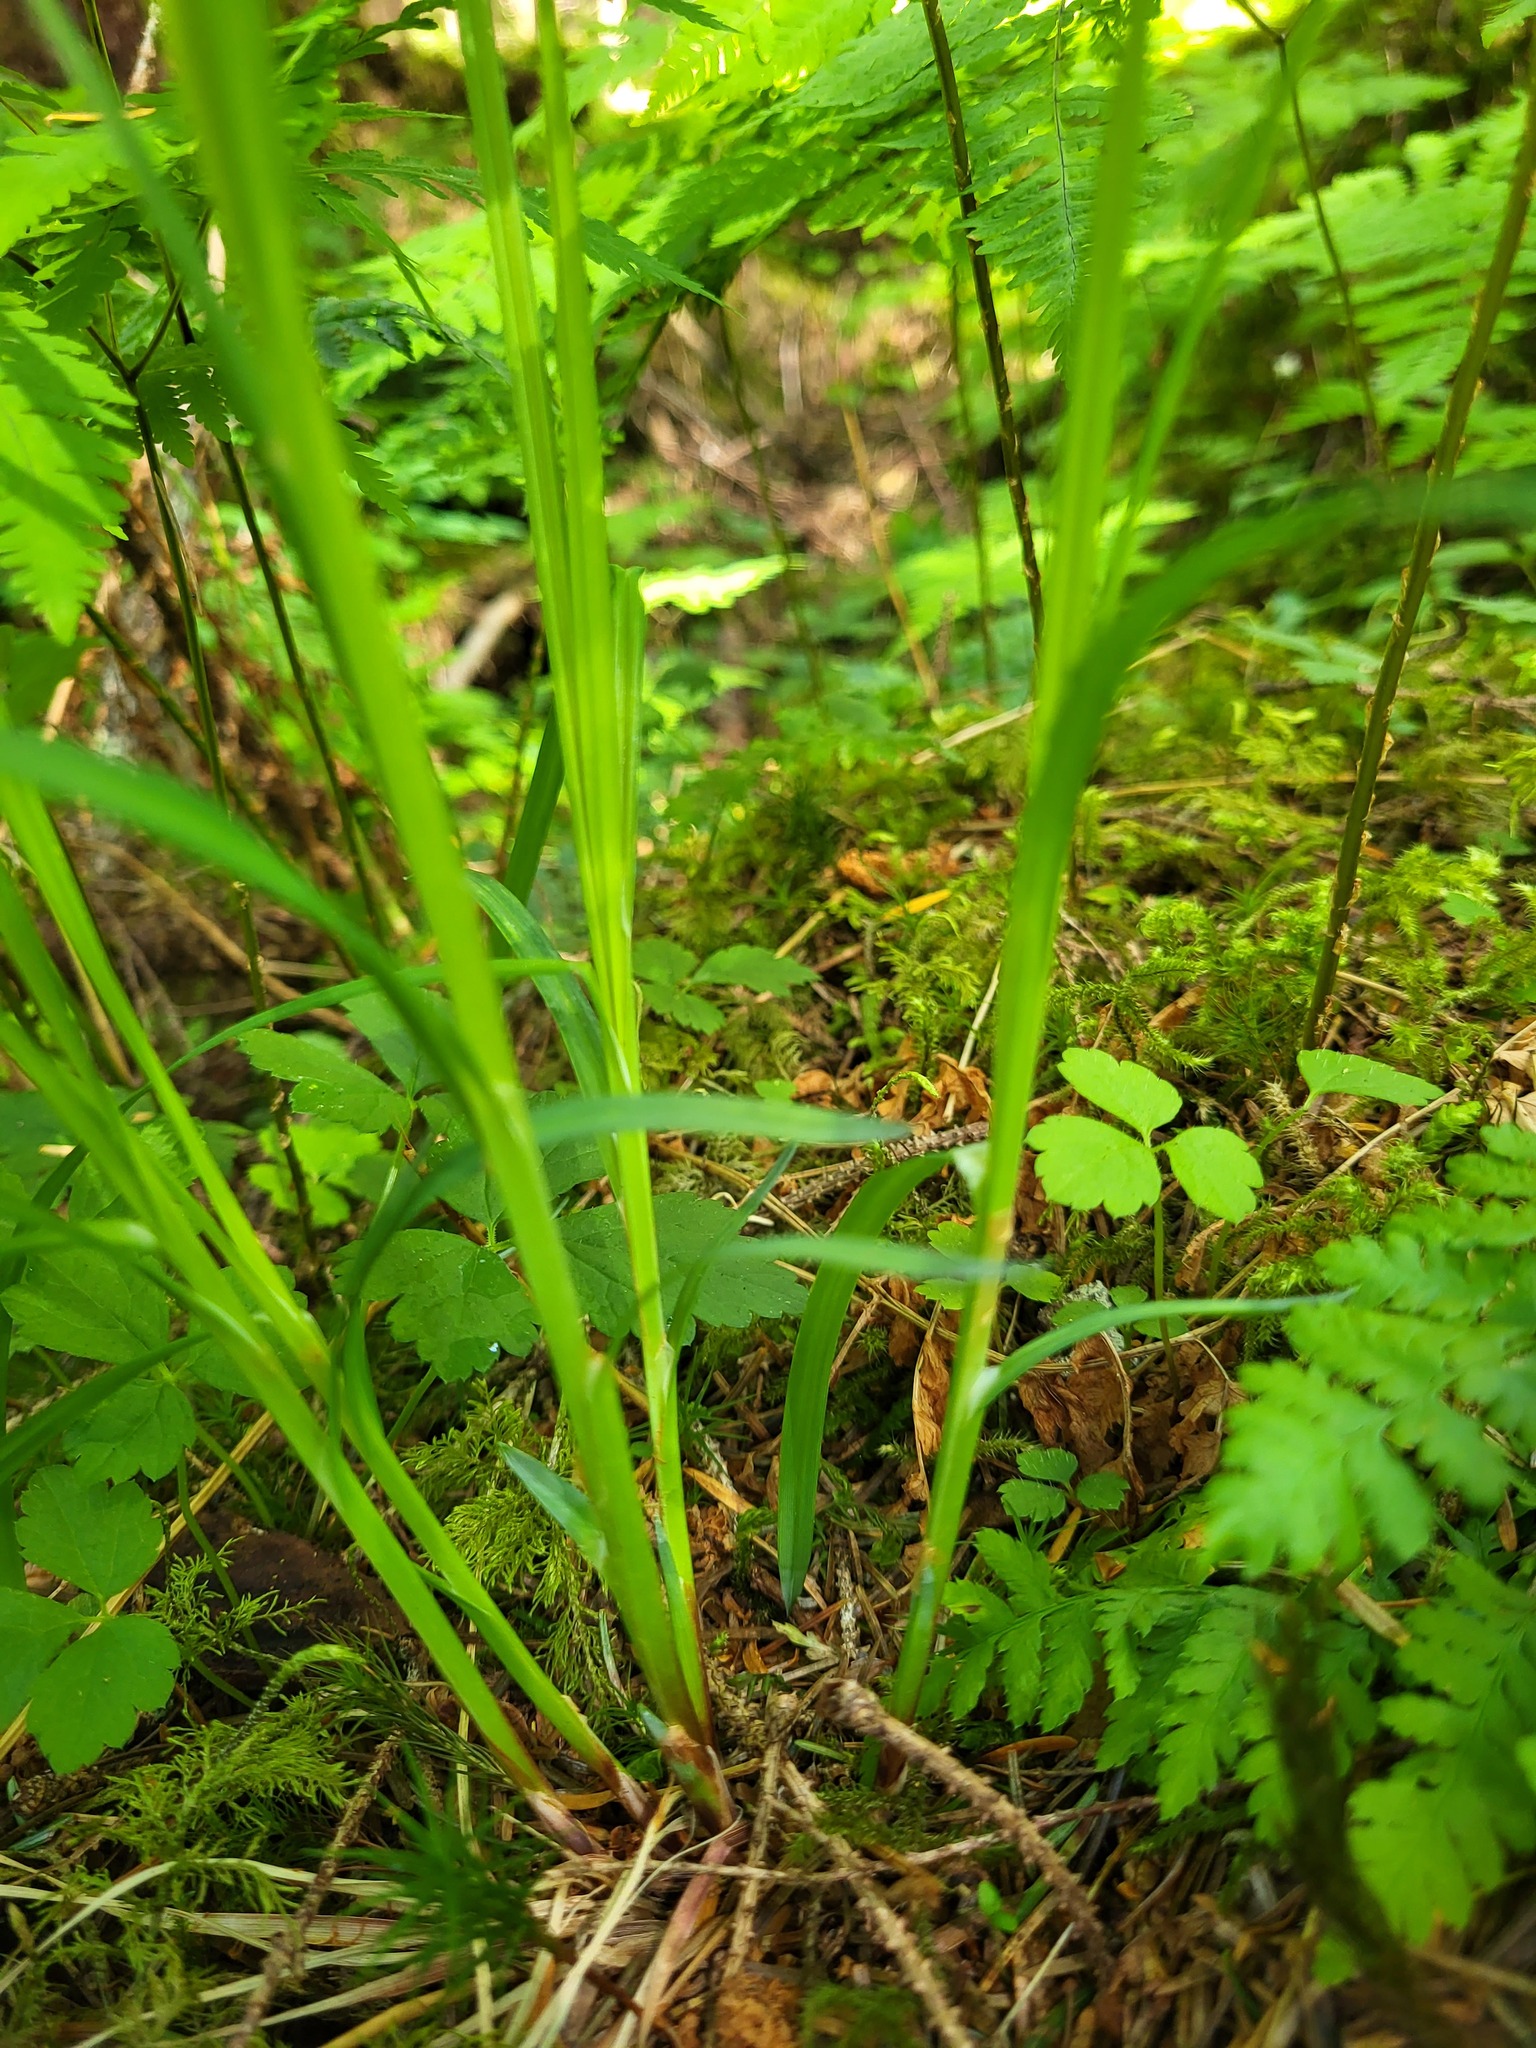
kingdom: Plantae
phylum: Tracheophyta
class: Liliopsida
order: Poales
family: Cyperaceae
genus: Carex
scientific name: Carex mertensii
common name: Mertens' sedge
